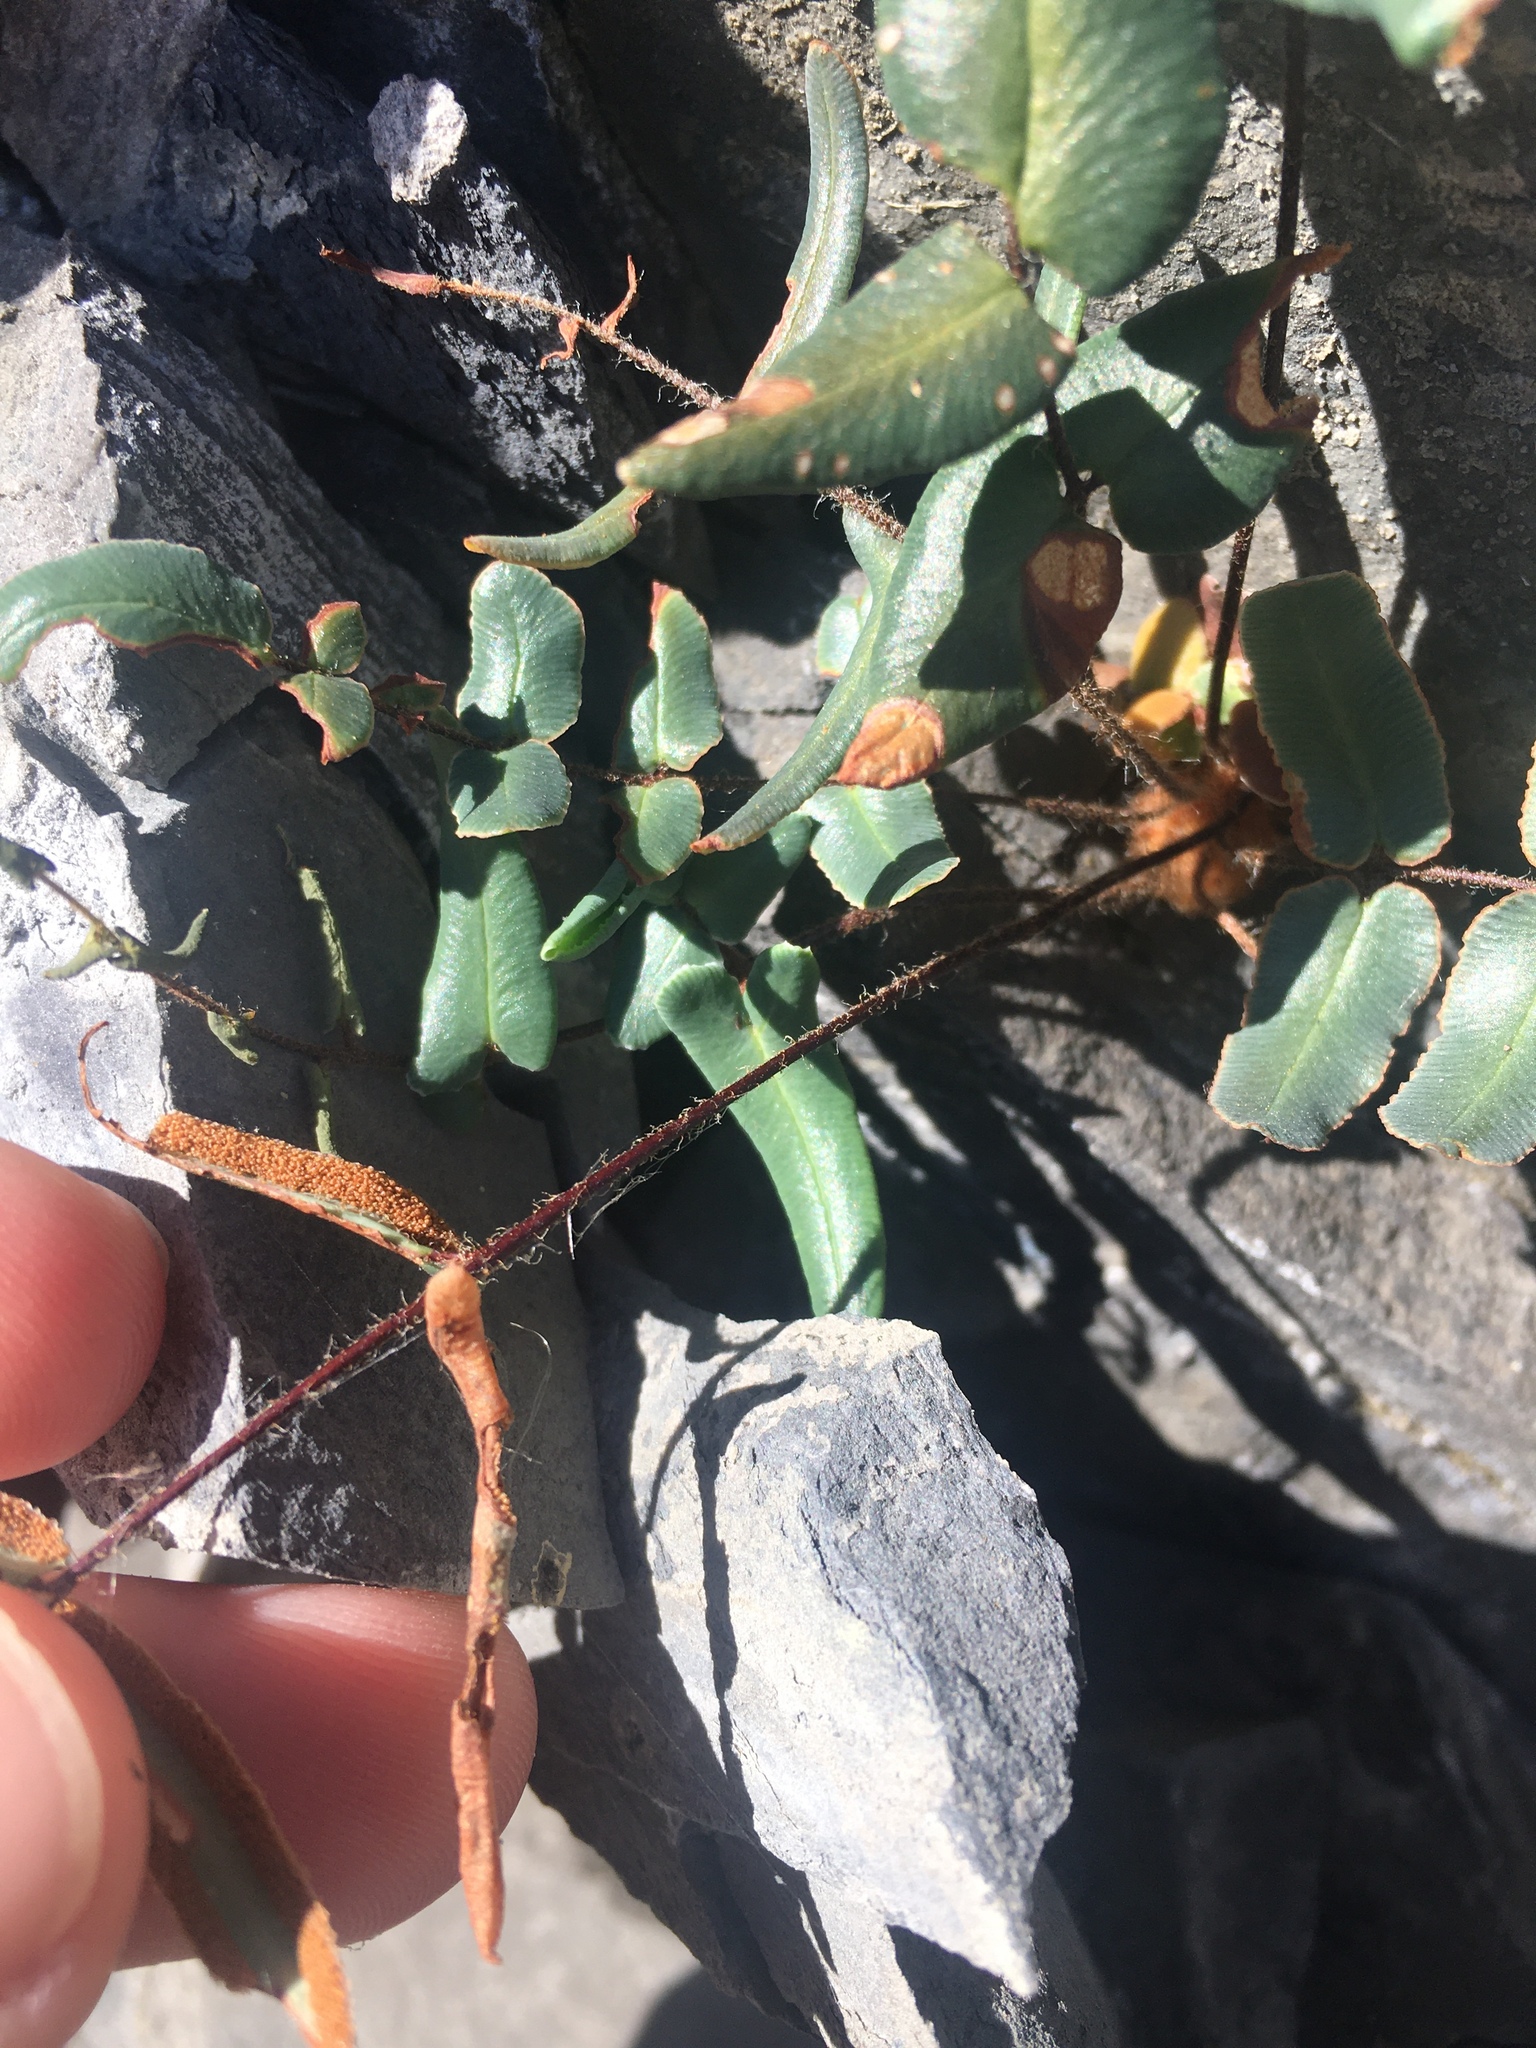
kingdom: Plantae
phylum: Tracheophyta
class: Polypodiopsida
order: Polypodiales
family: Pteridaceae
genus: Pellaea
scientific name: Pellaea atropurpurea
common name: Hairy cliffbrake
